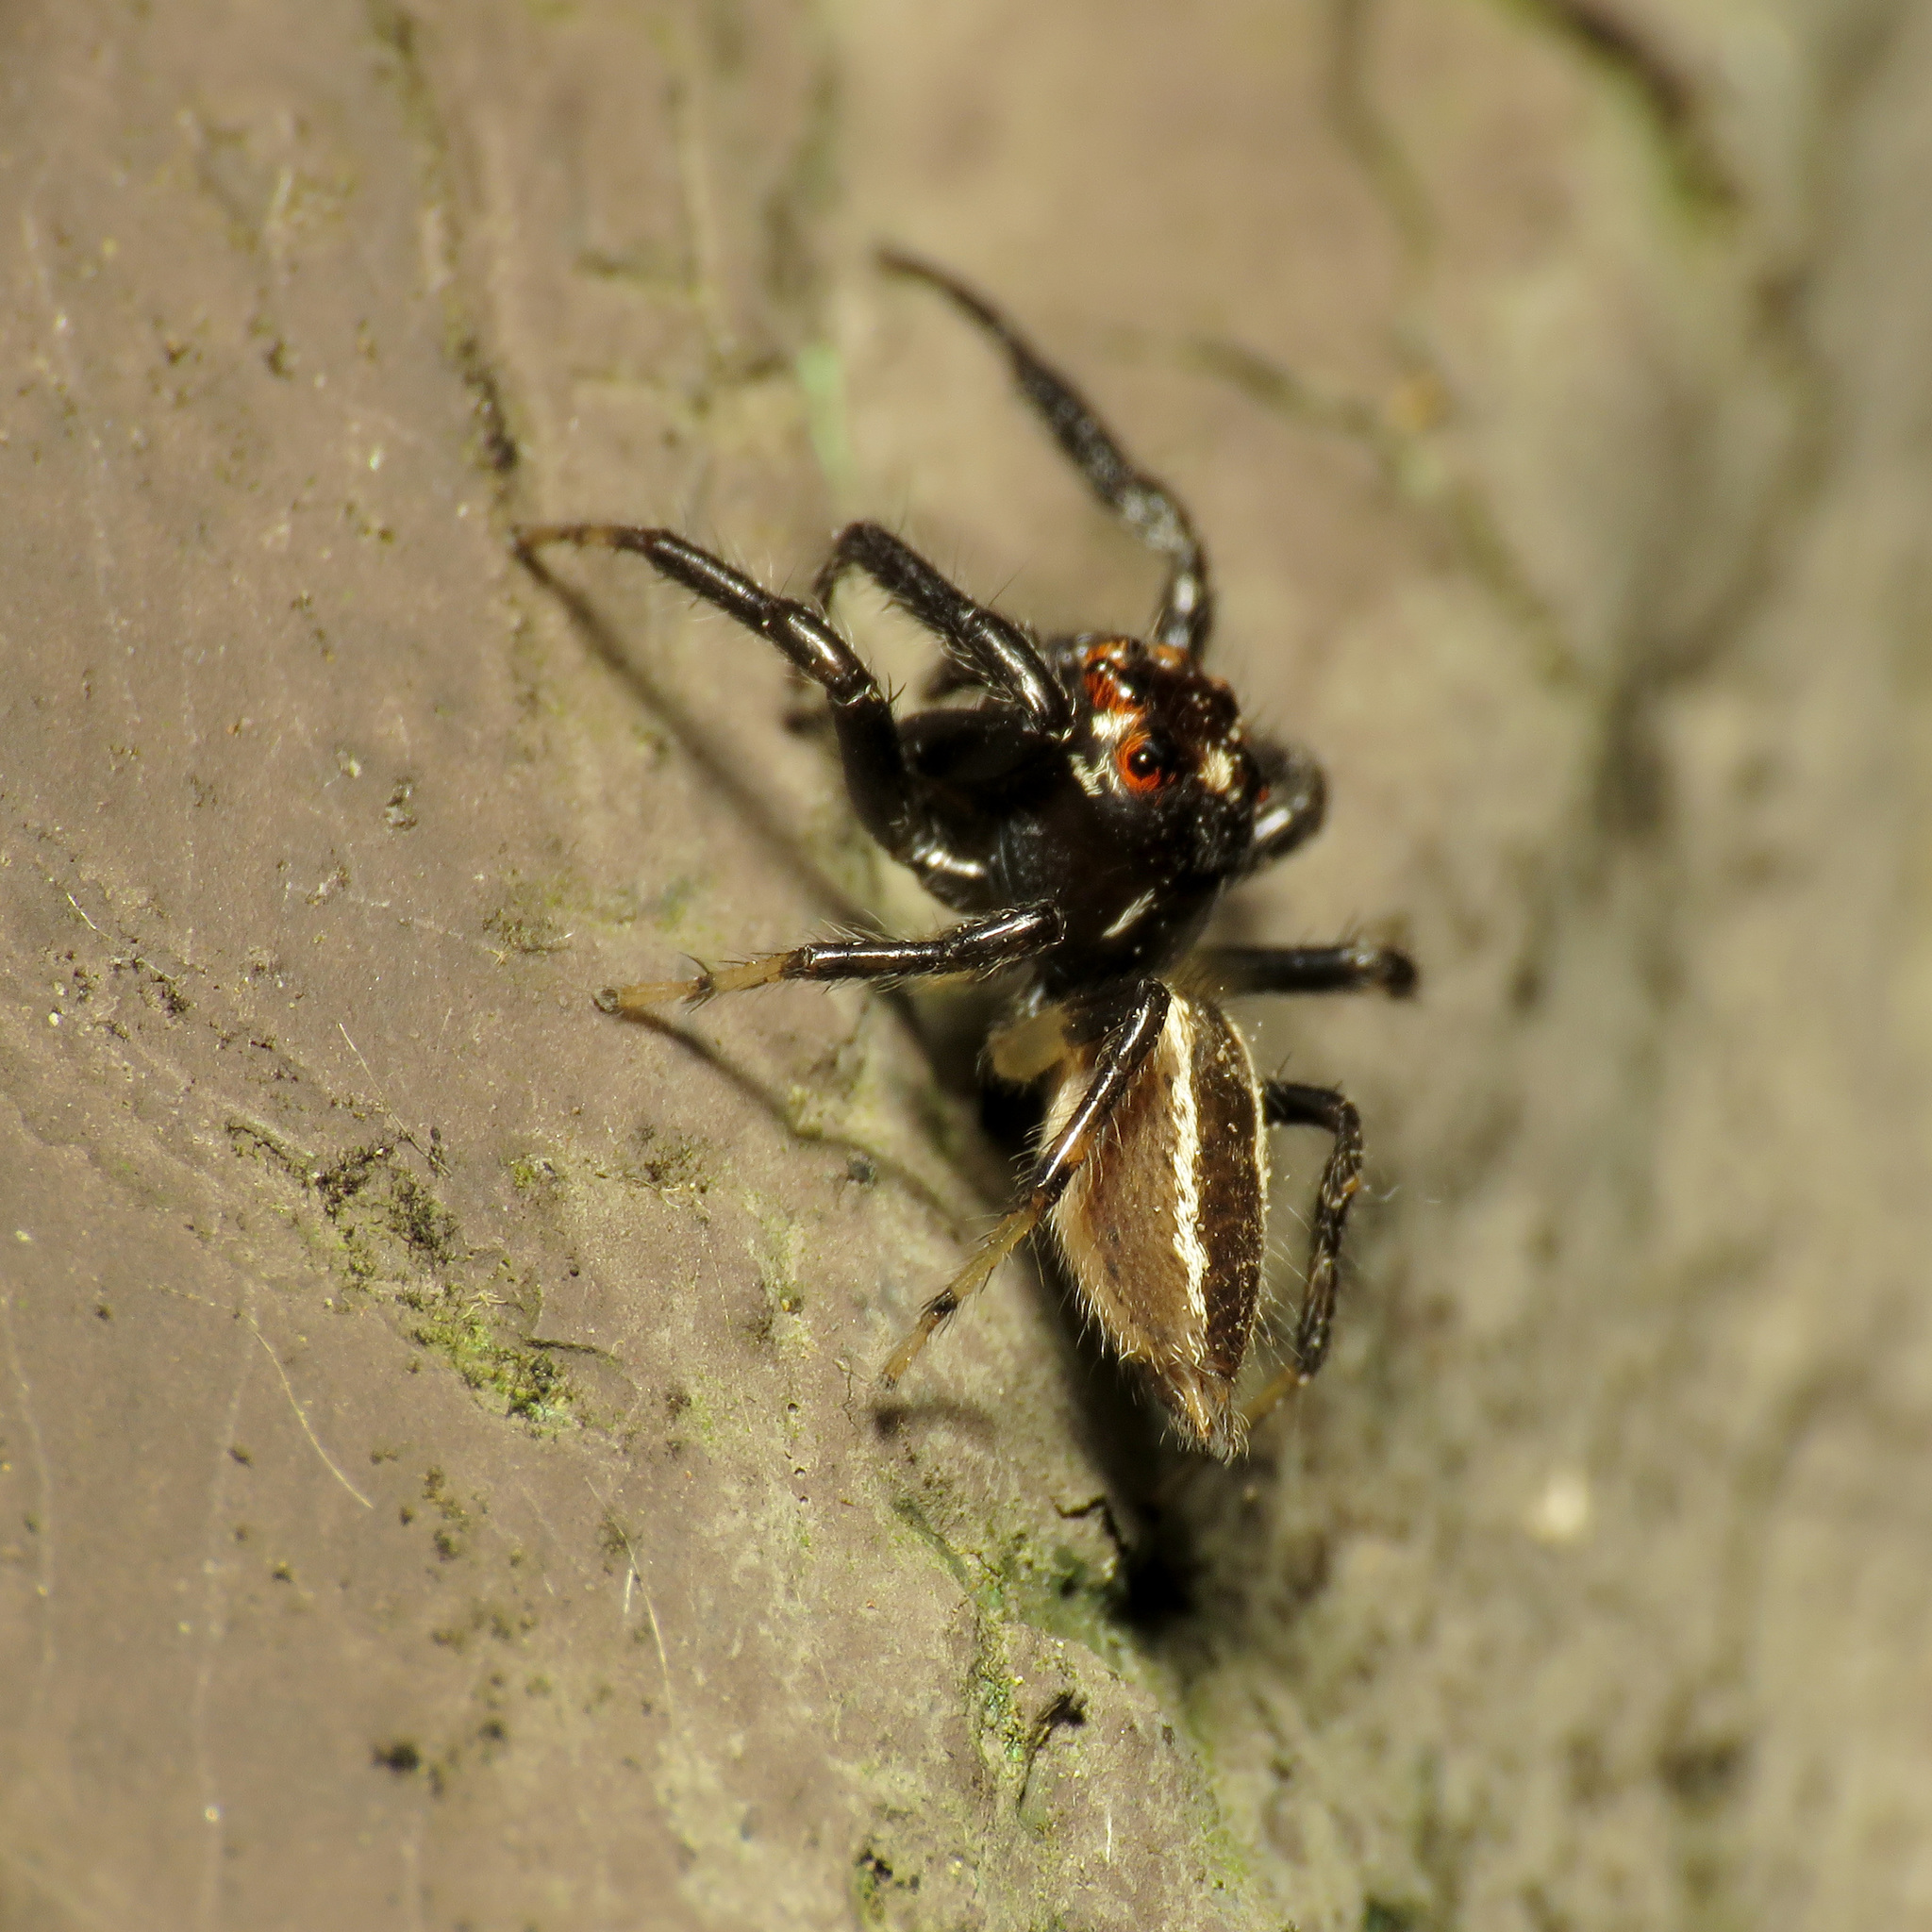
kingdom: Animalia
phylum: Arthropoda
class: Arachnida
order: Araneae
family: Salticidae
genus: Colonus
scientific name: Colonus sylvanus
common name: Jumping spiders
